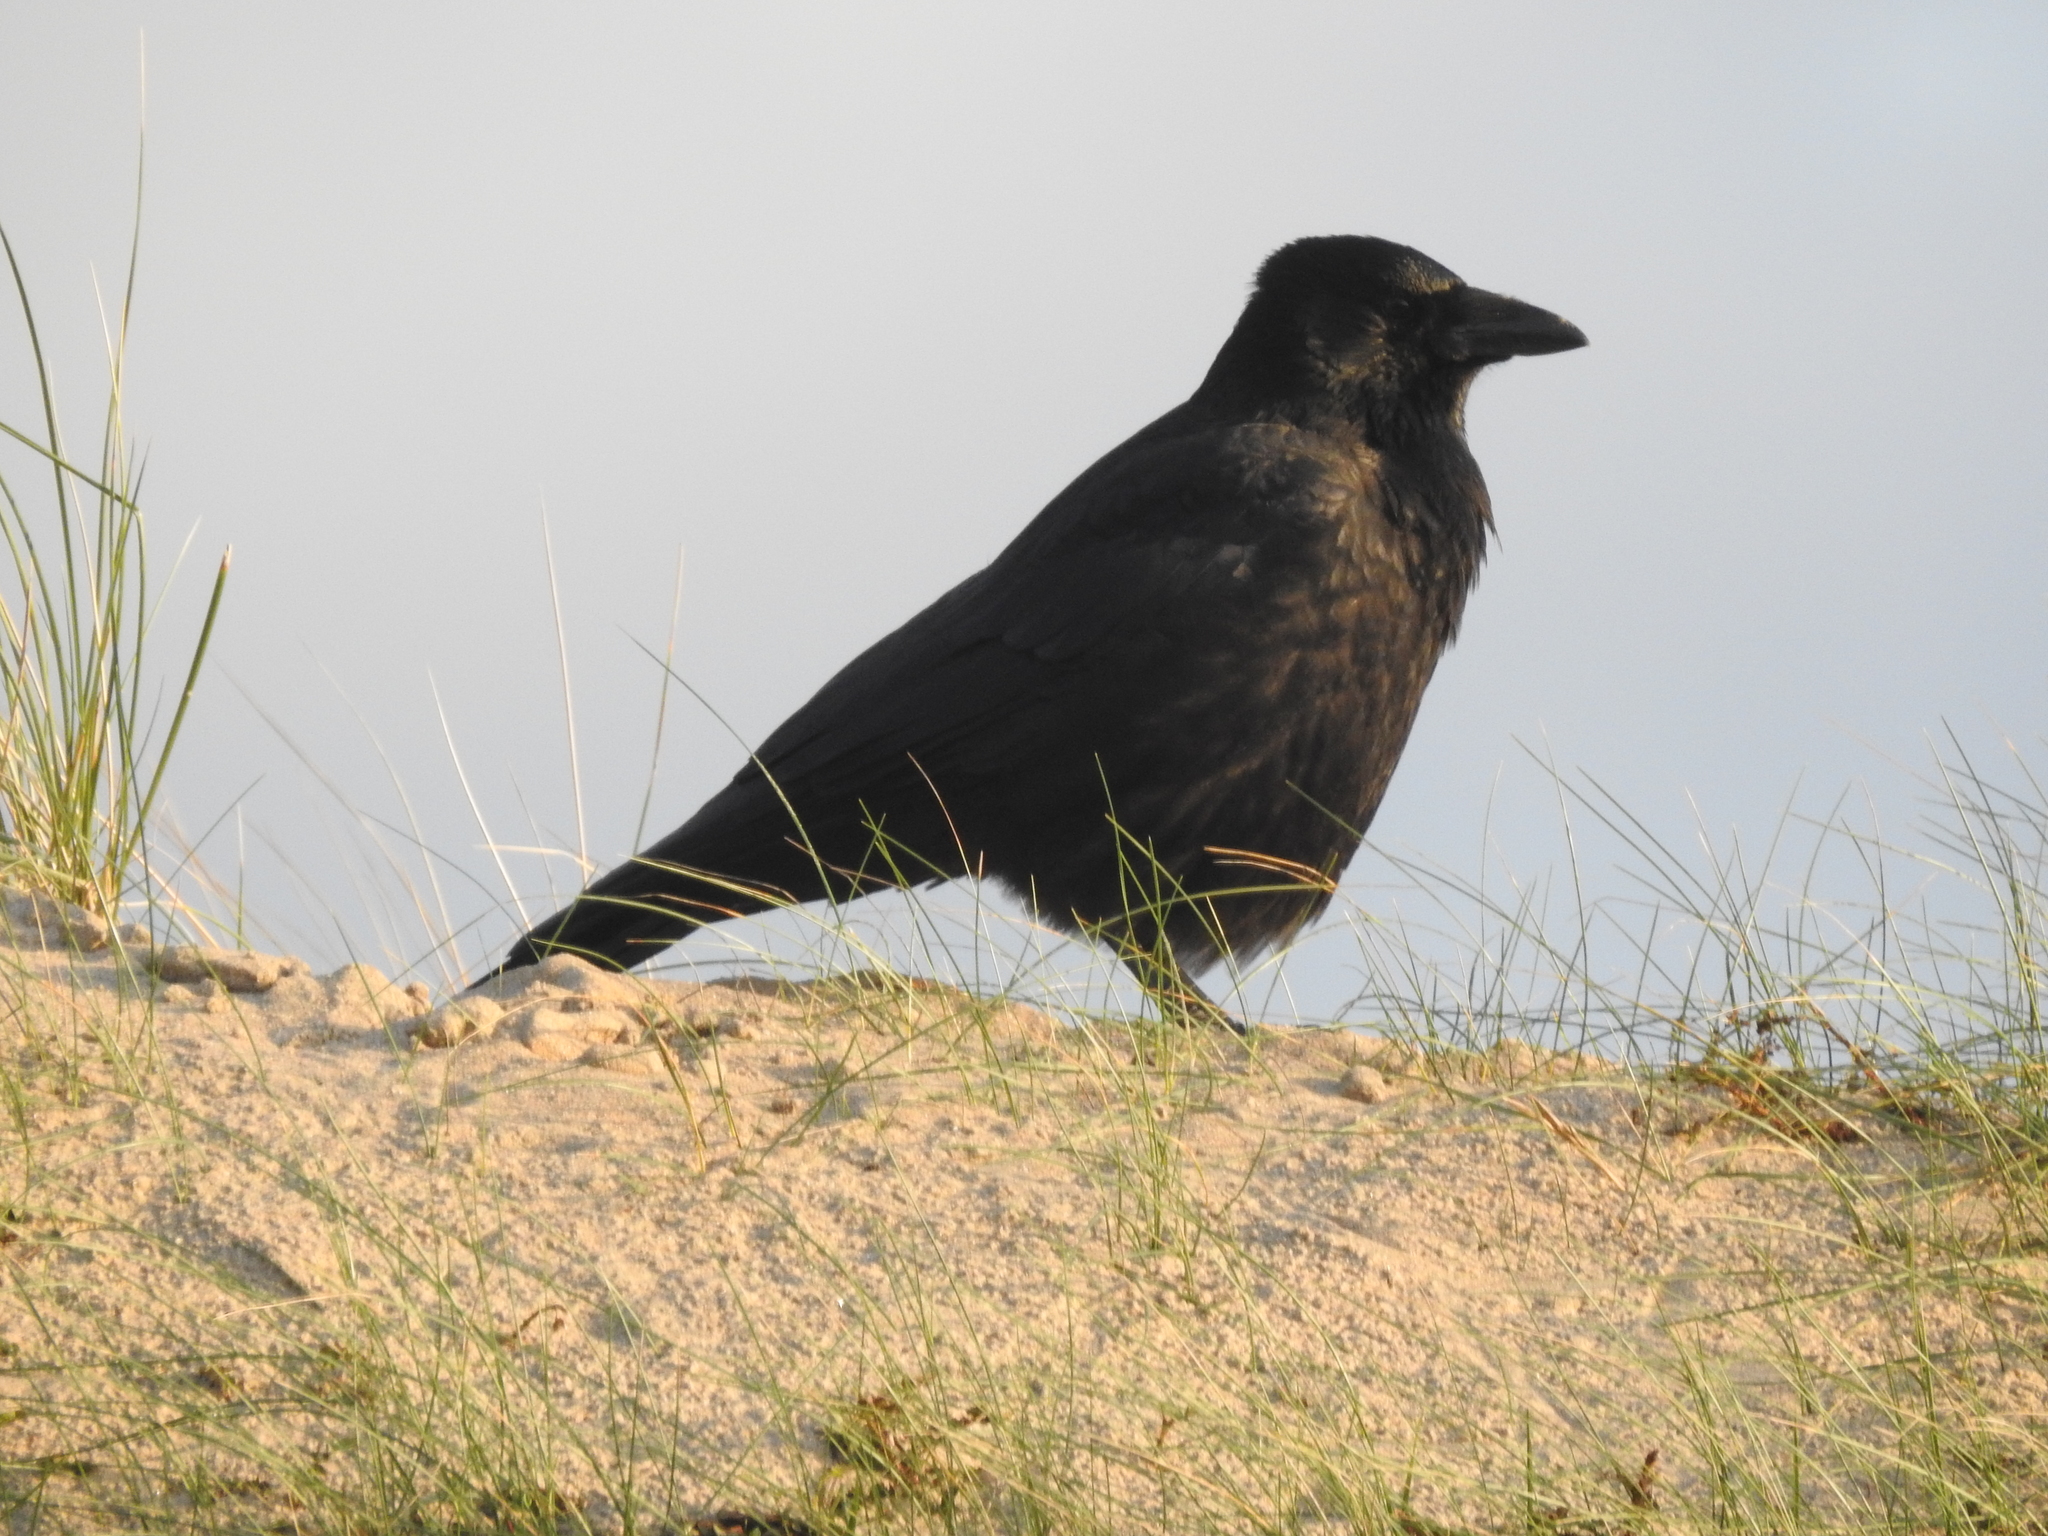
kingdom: Animalia
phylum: Chordata
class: Aves
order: Passeriformes
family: Corvidae
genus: Corvus
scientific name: Corvus corone
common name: Carrion crow
